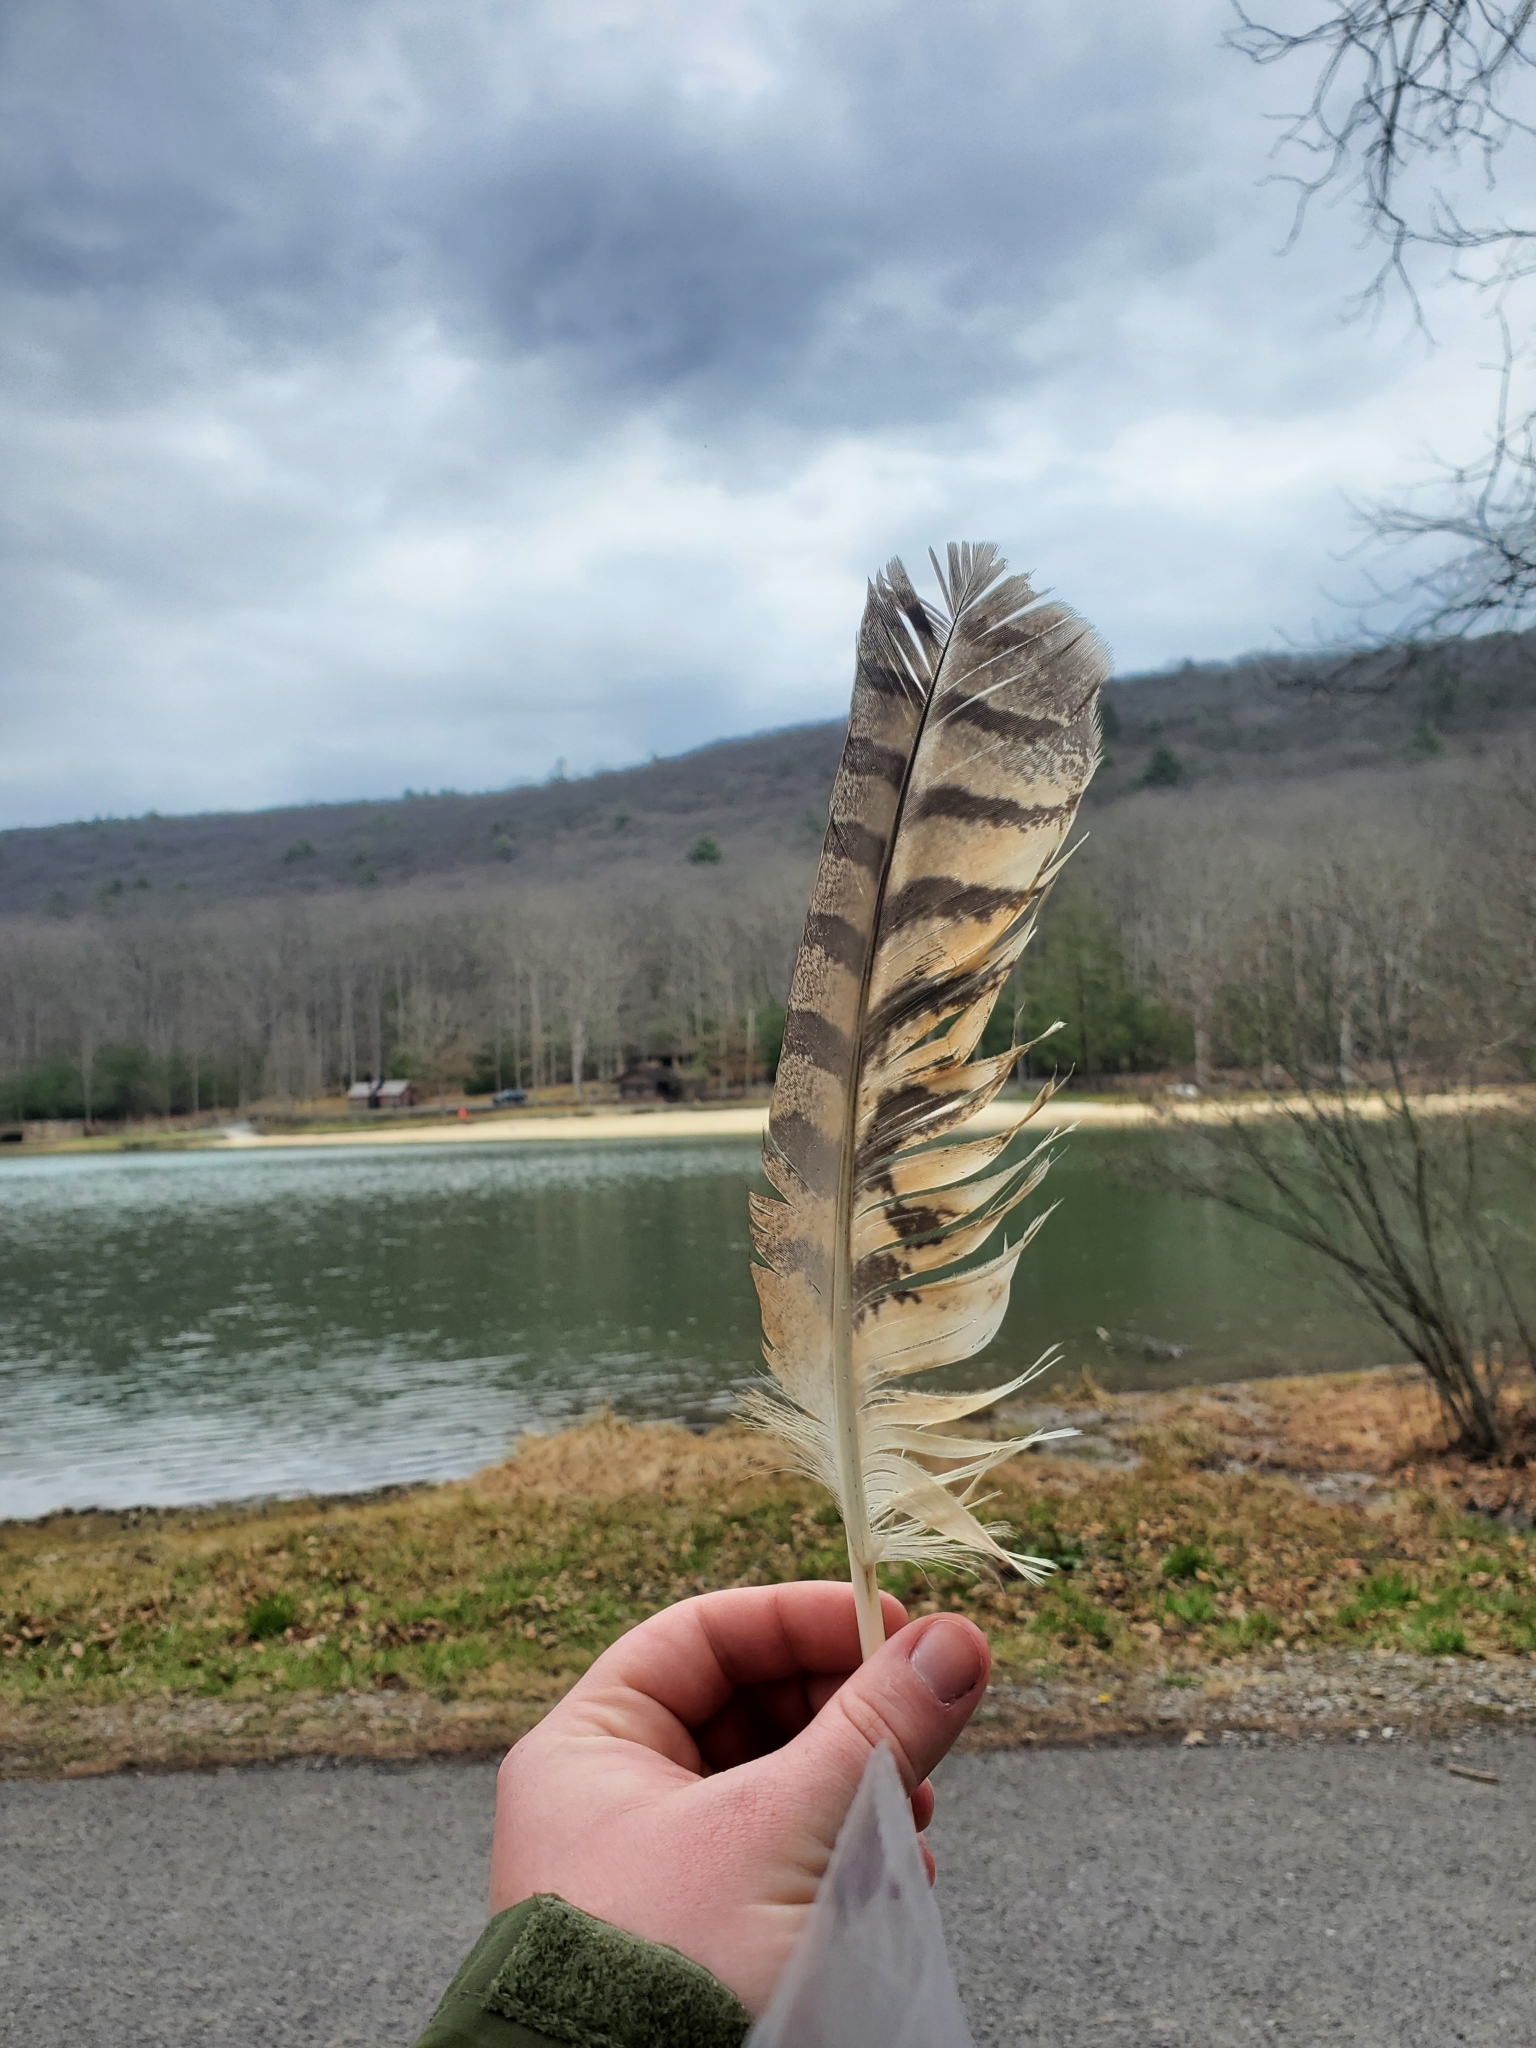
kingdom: Animalia
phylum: Chordata
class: Aves
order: Strigiformes
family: Strigidae
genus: Bubo
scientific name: Bubo virginianus
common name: Great horned owl
